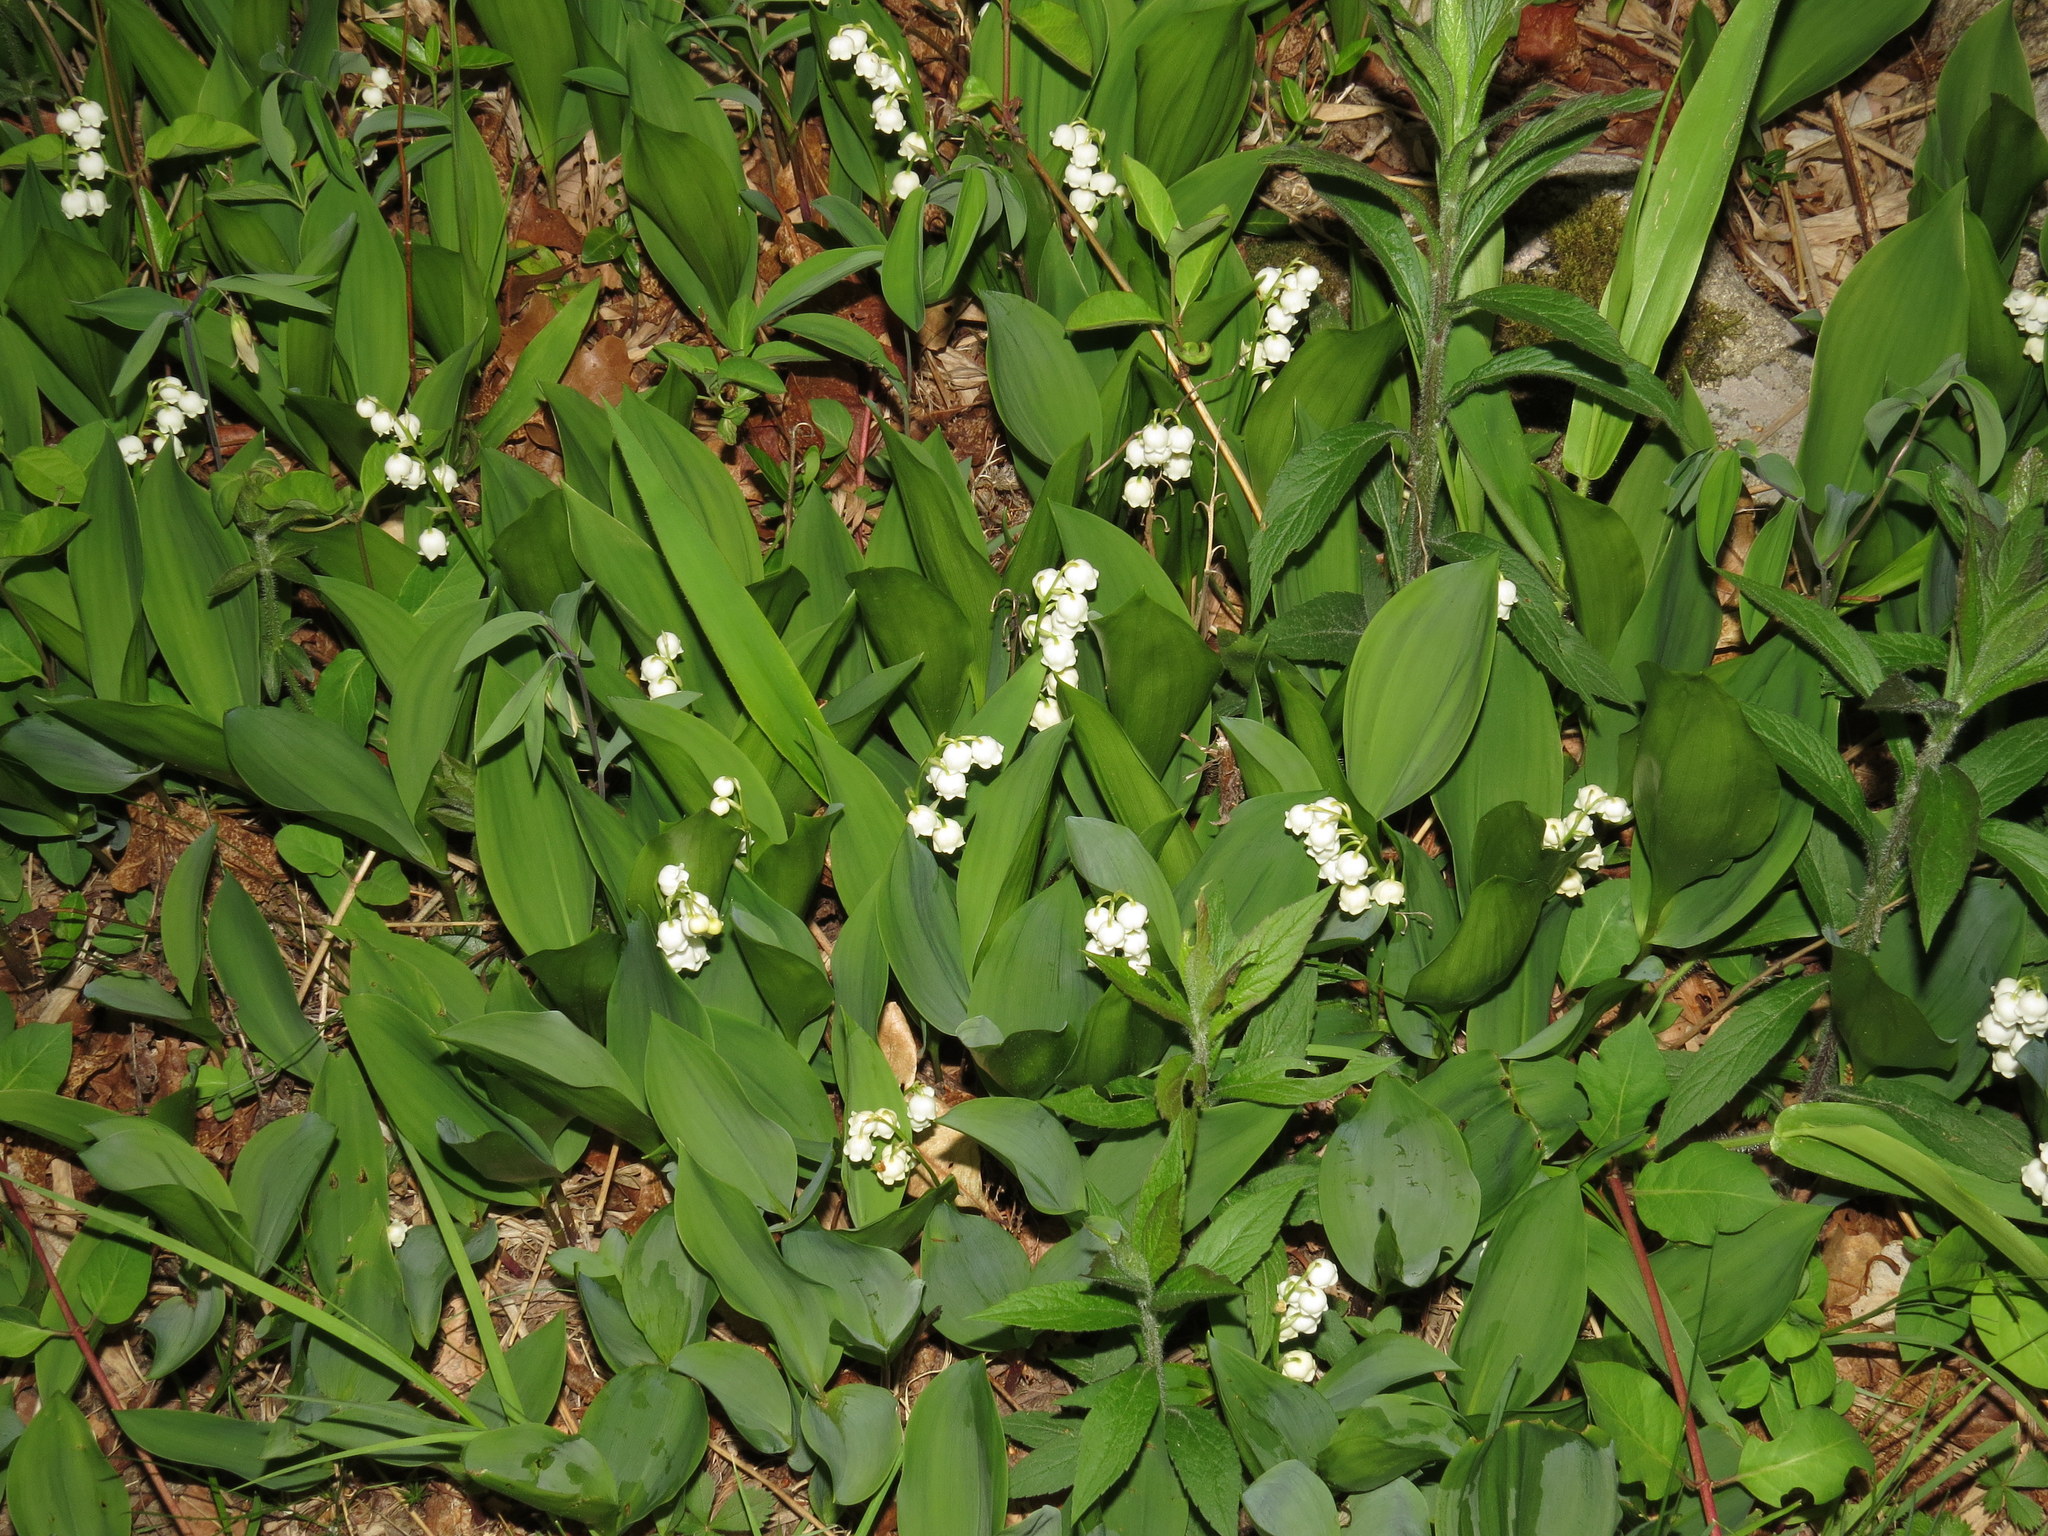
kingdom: Plantae
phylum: Tracheophyta
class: Liliopsida
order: Asparagales
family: Asparagaceae
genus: Convallaria
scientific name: Convallaria majalis
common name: Lily-of-the-valley
